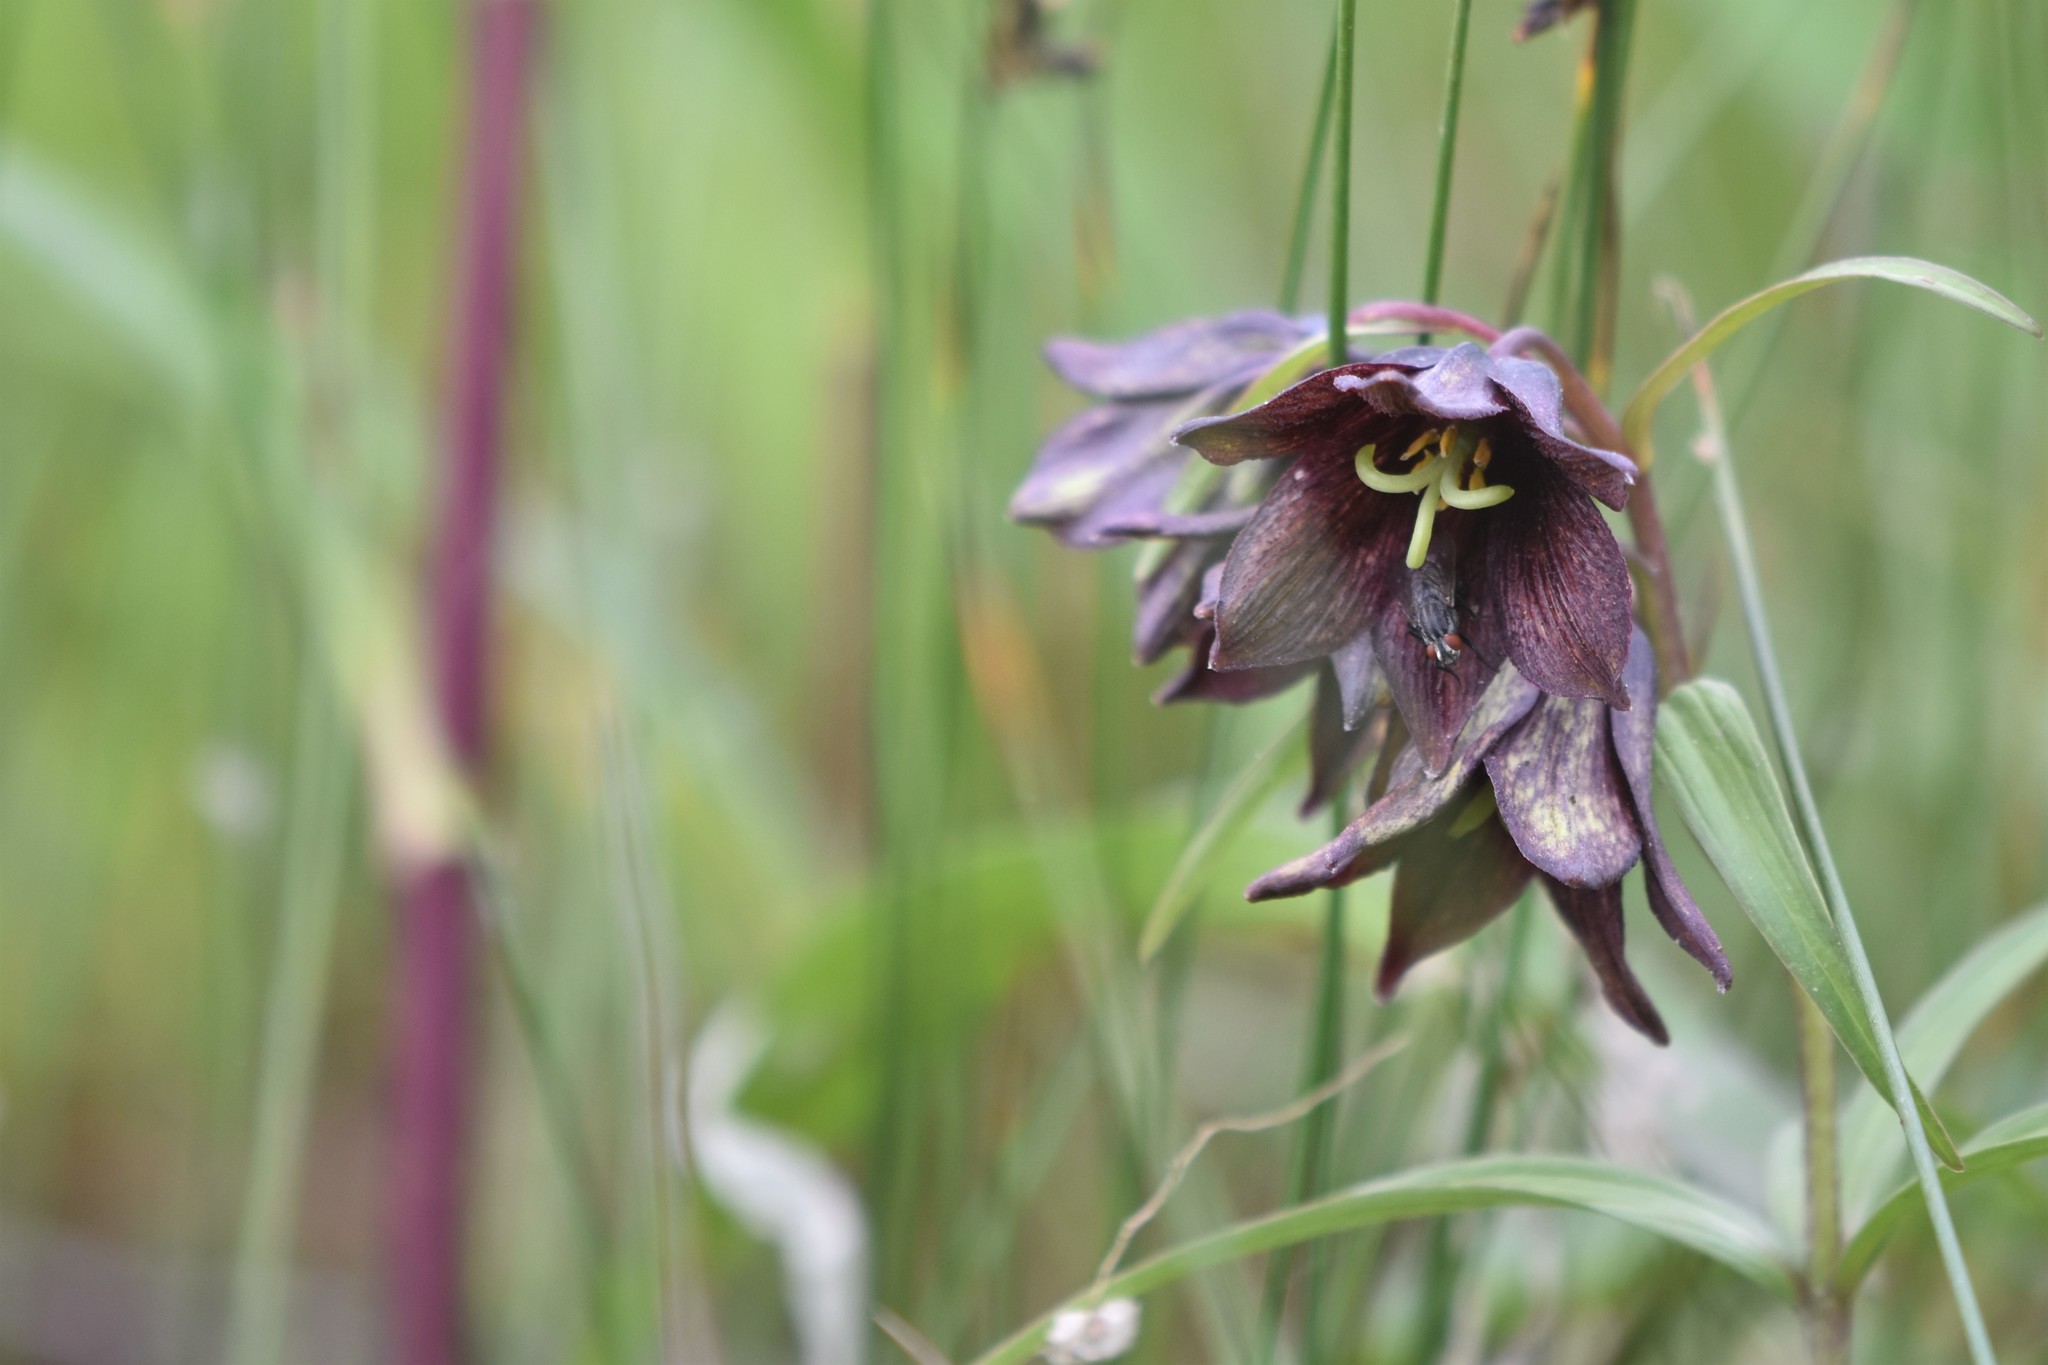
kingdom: Plantae
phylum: Tracheophyta
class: Liliopsida
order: Liliales
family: Liliaceae
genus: Fritillaria
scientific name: Fritillaria camschatcensis
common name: Kamchatka fritillary
